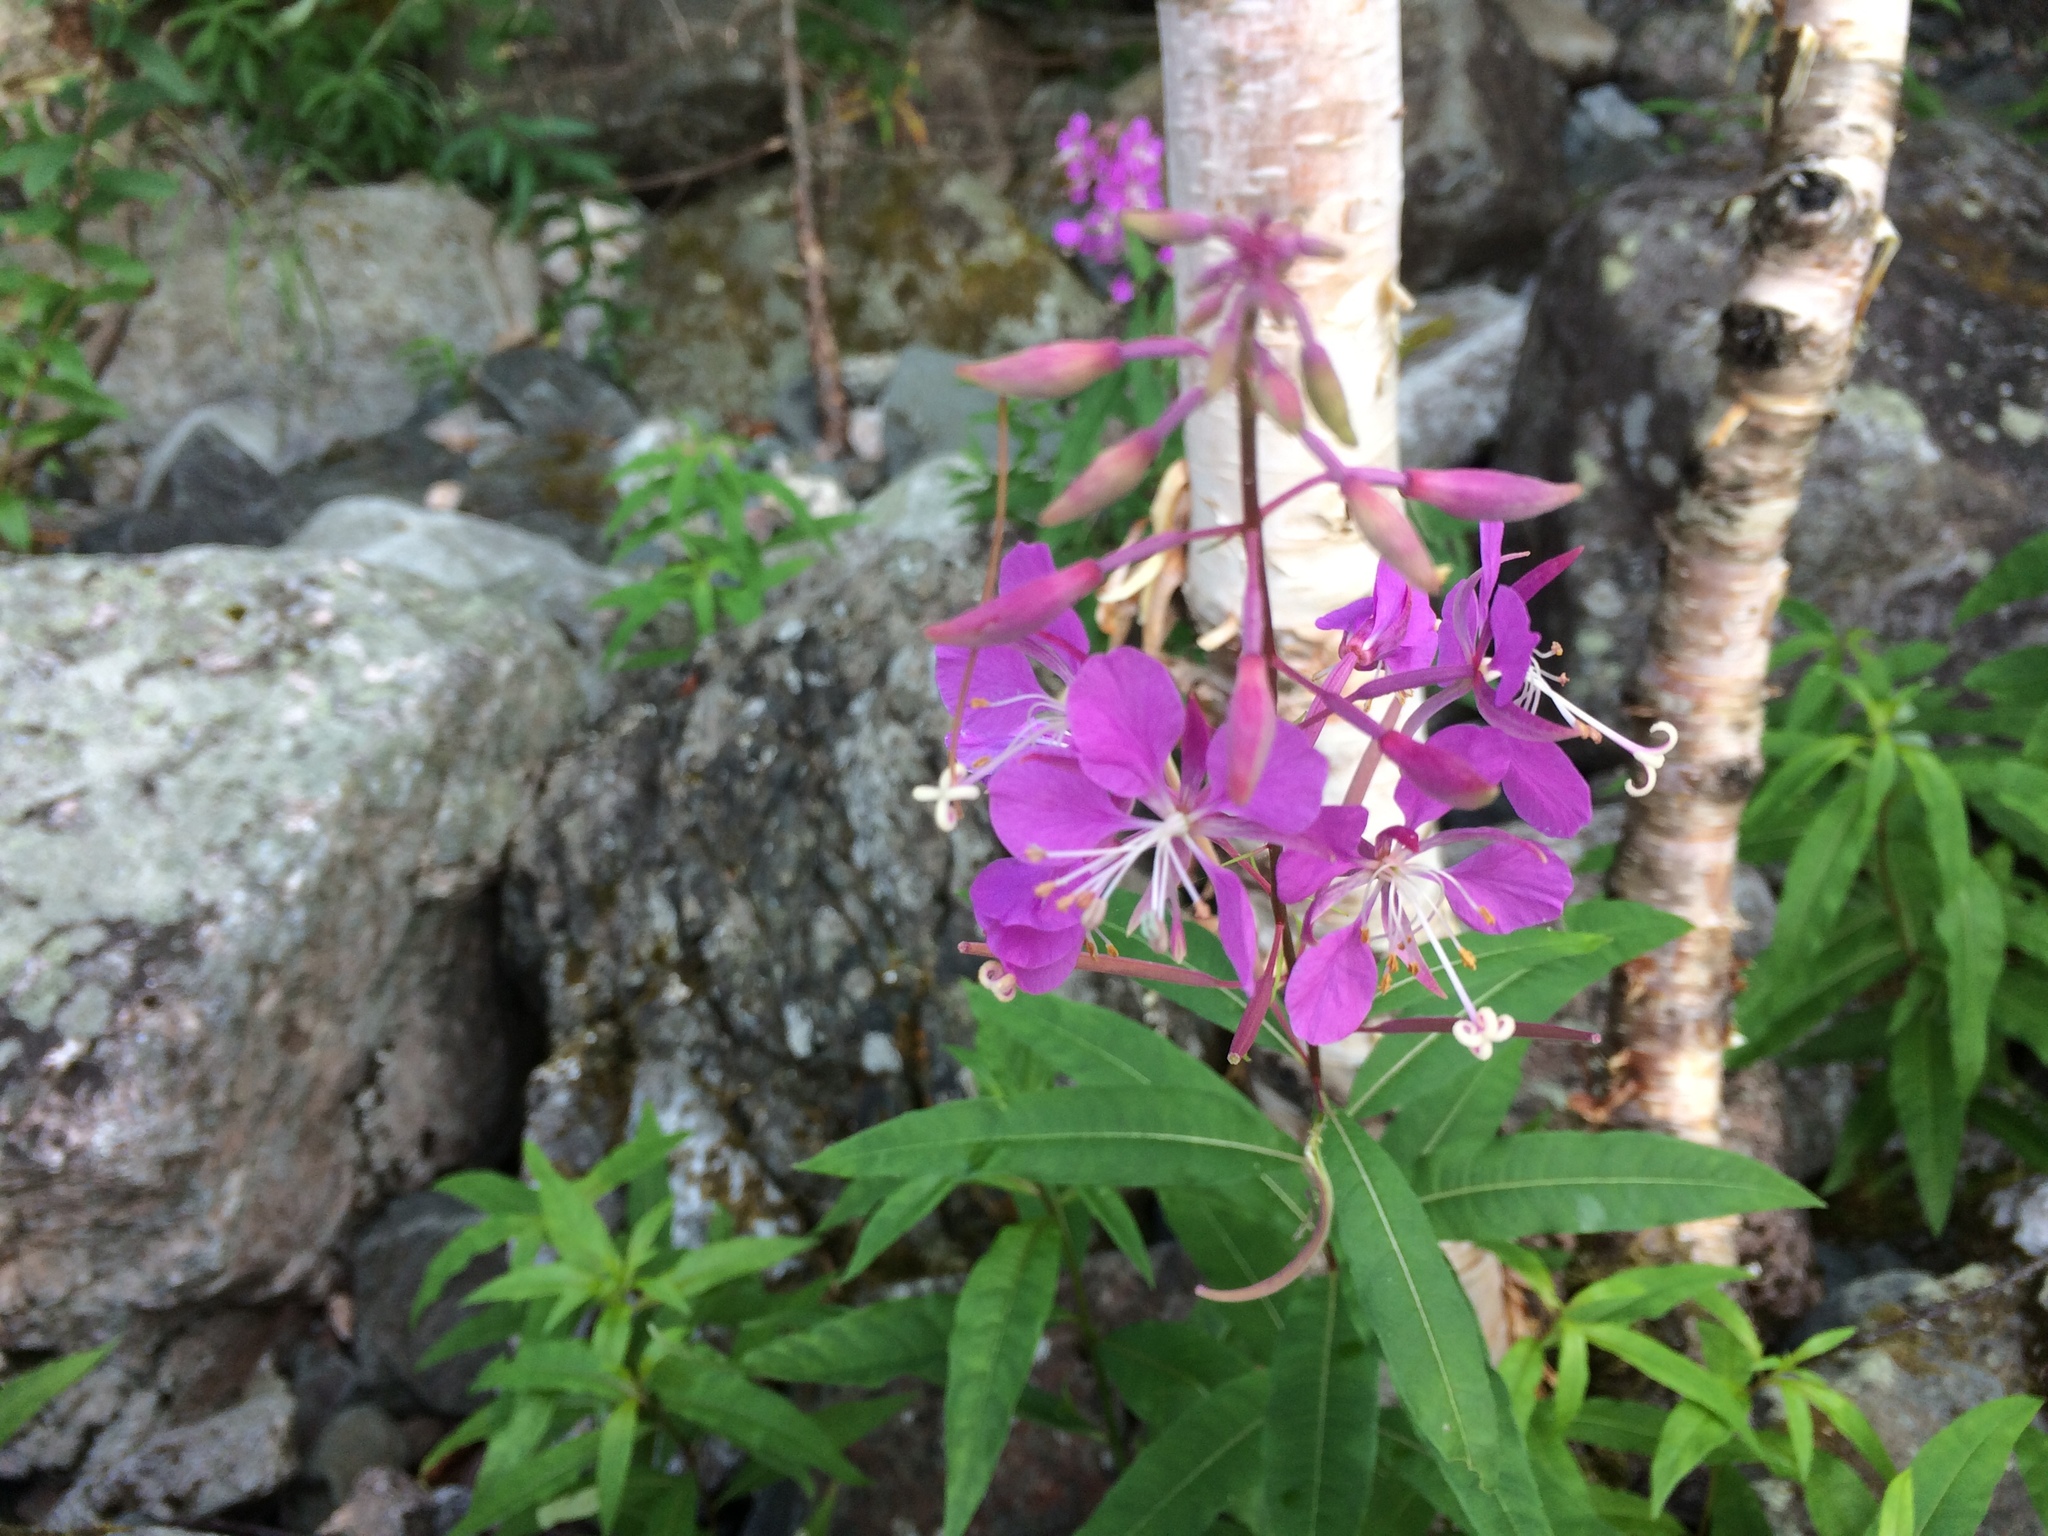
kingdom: Plantae
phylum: Tracheophyta
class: Magnoliopsida
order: Myrtales
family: Onagraceae
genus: Chamaenerion
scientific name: Chamaenerion angustifolium
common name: Fireweed
